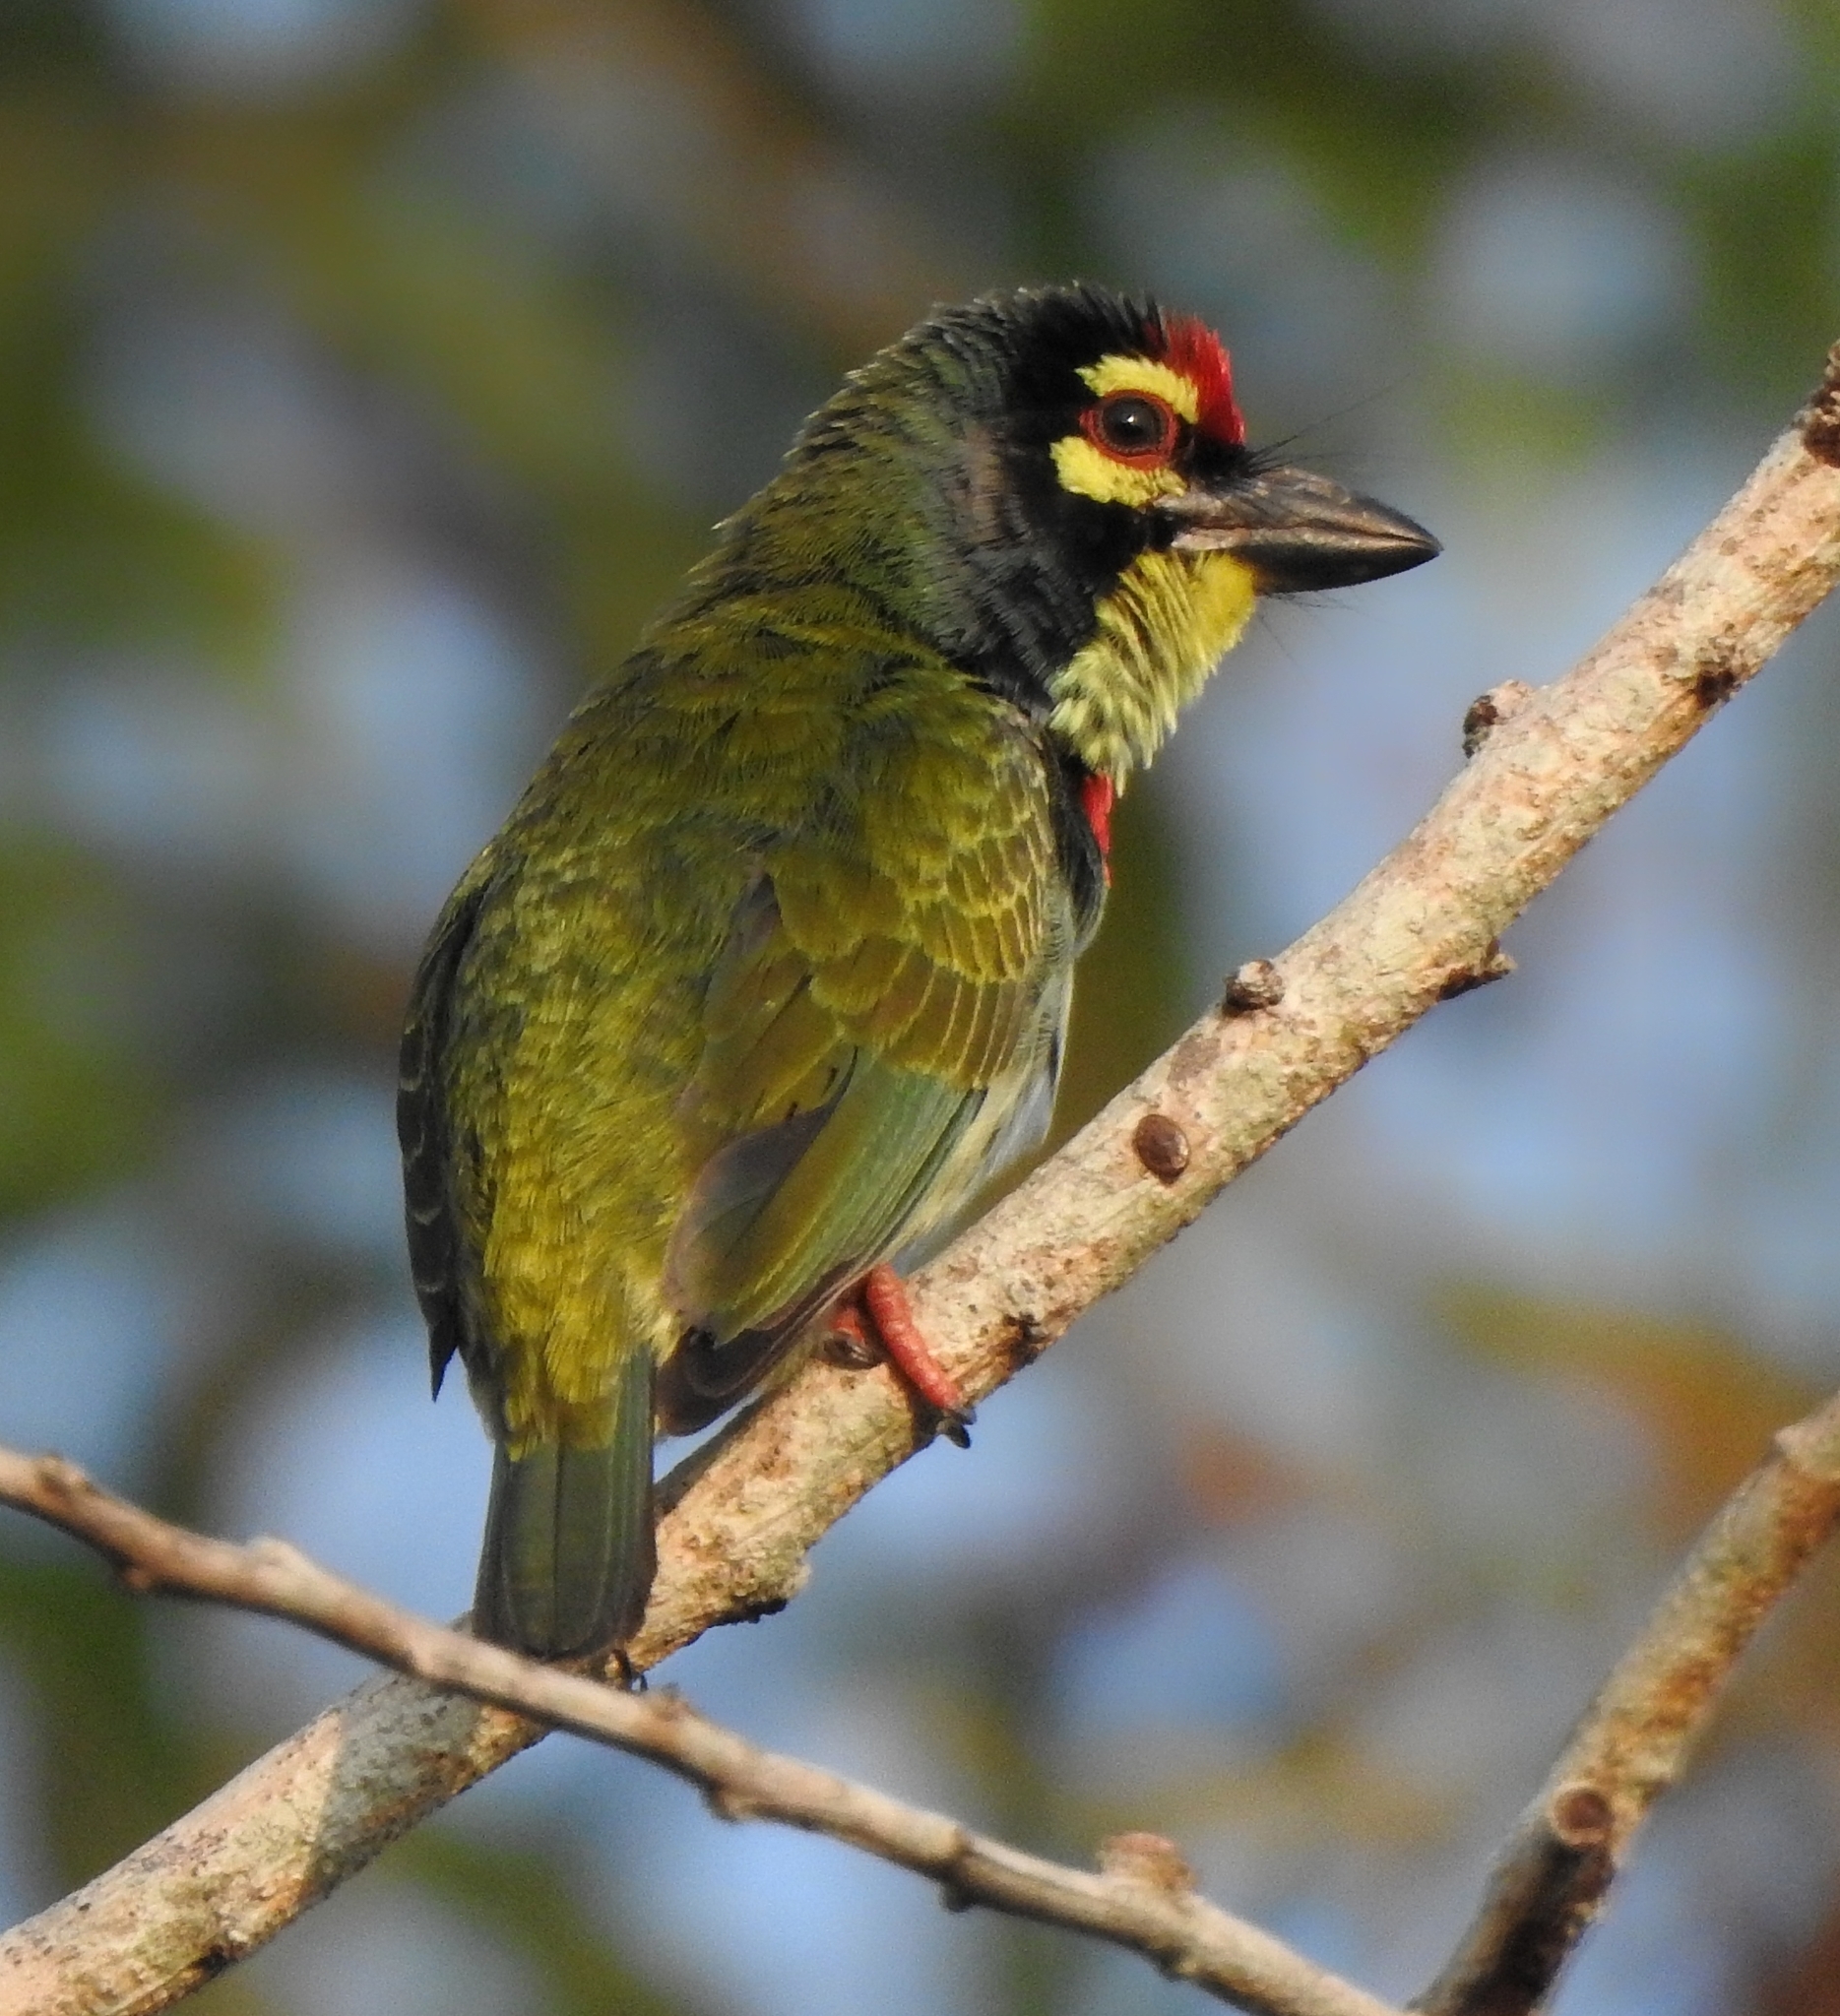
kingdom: Animalia
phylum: Chordata
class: Aves
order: Piciformes
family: Megalaimidae
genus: Psilopogon
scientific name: Psilopogon haemacephalus
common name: Coppersmith barbet
